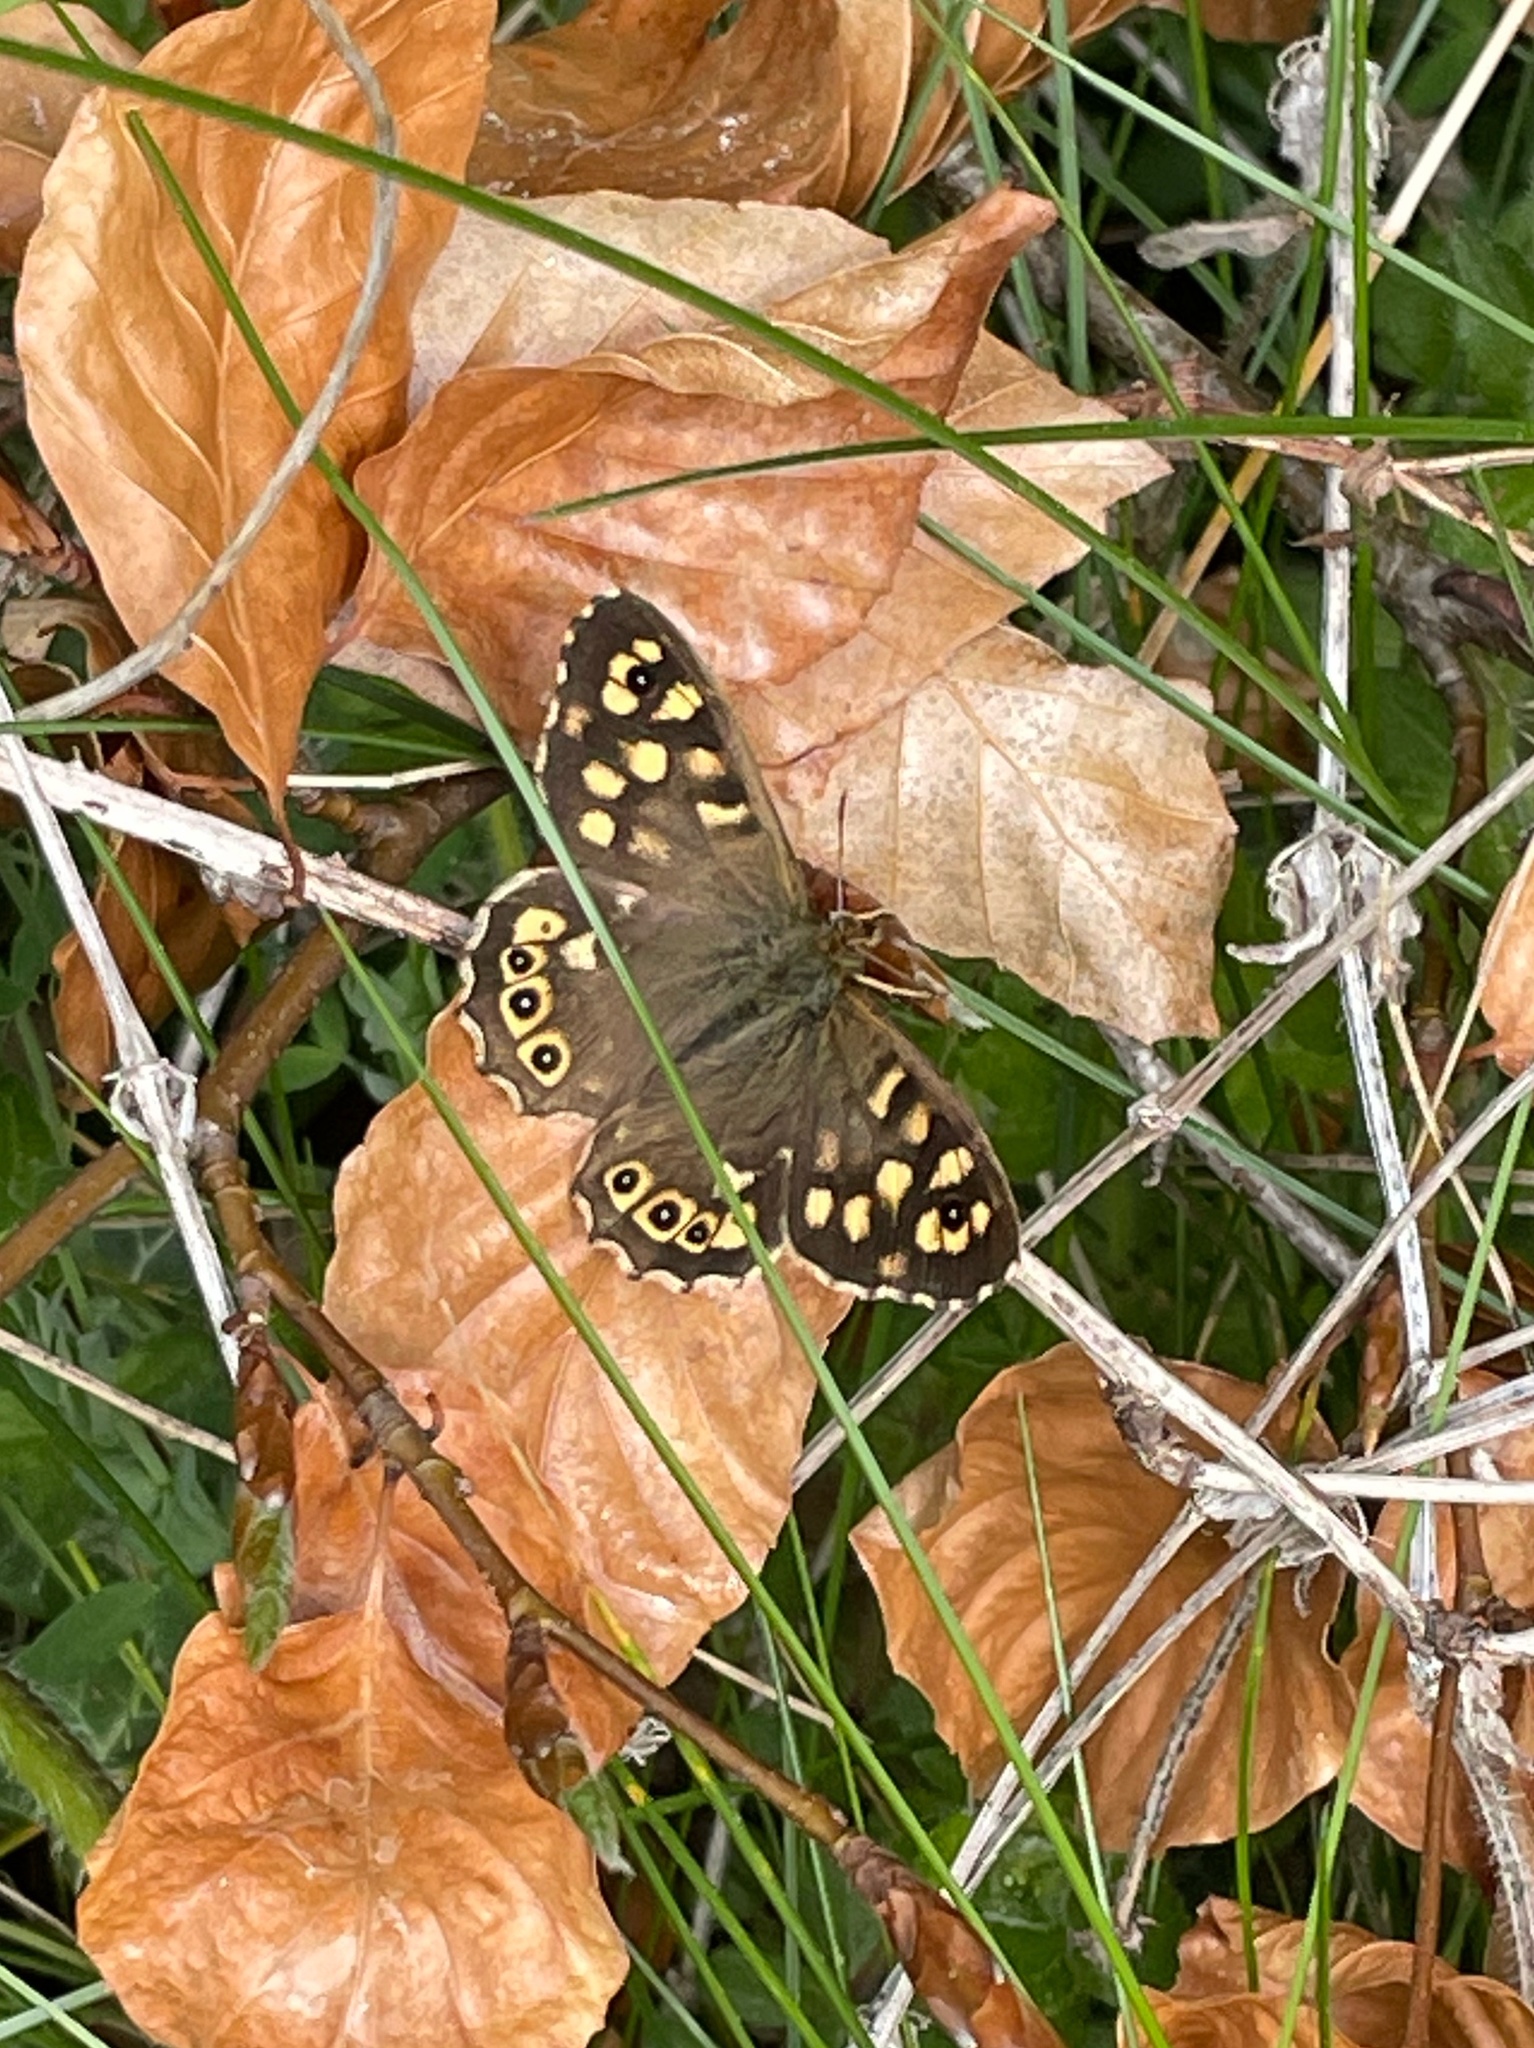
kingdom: Animalia
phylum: Arthropoda
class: Insecta
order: Lepidoptera
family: Nymphalidae
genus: Pararge
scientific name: Pararge aegeria
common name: Speckled wood
